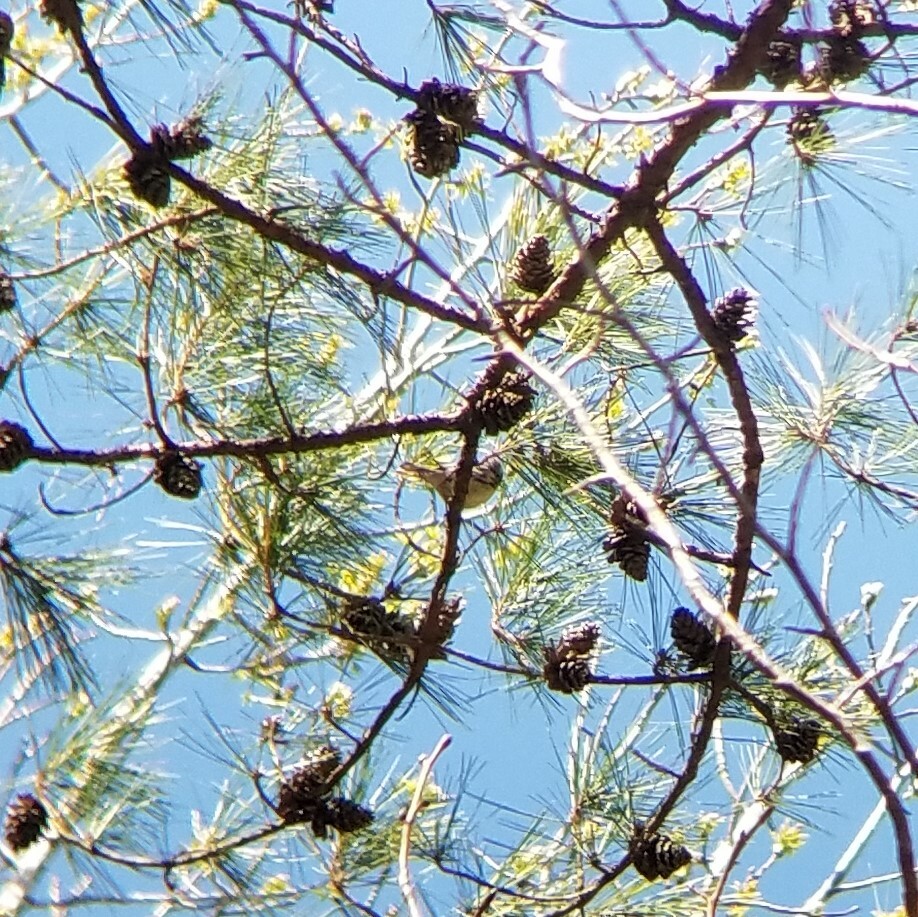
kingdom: Animalia
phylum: Chordata
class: Aves
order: Passeriformes
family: Parulidae
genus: Setophaga
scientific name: Setophaga dominica
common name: Yellow-throated warbler
